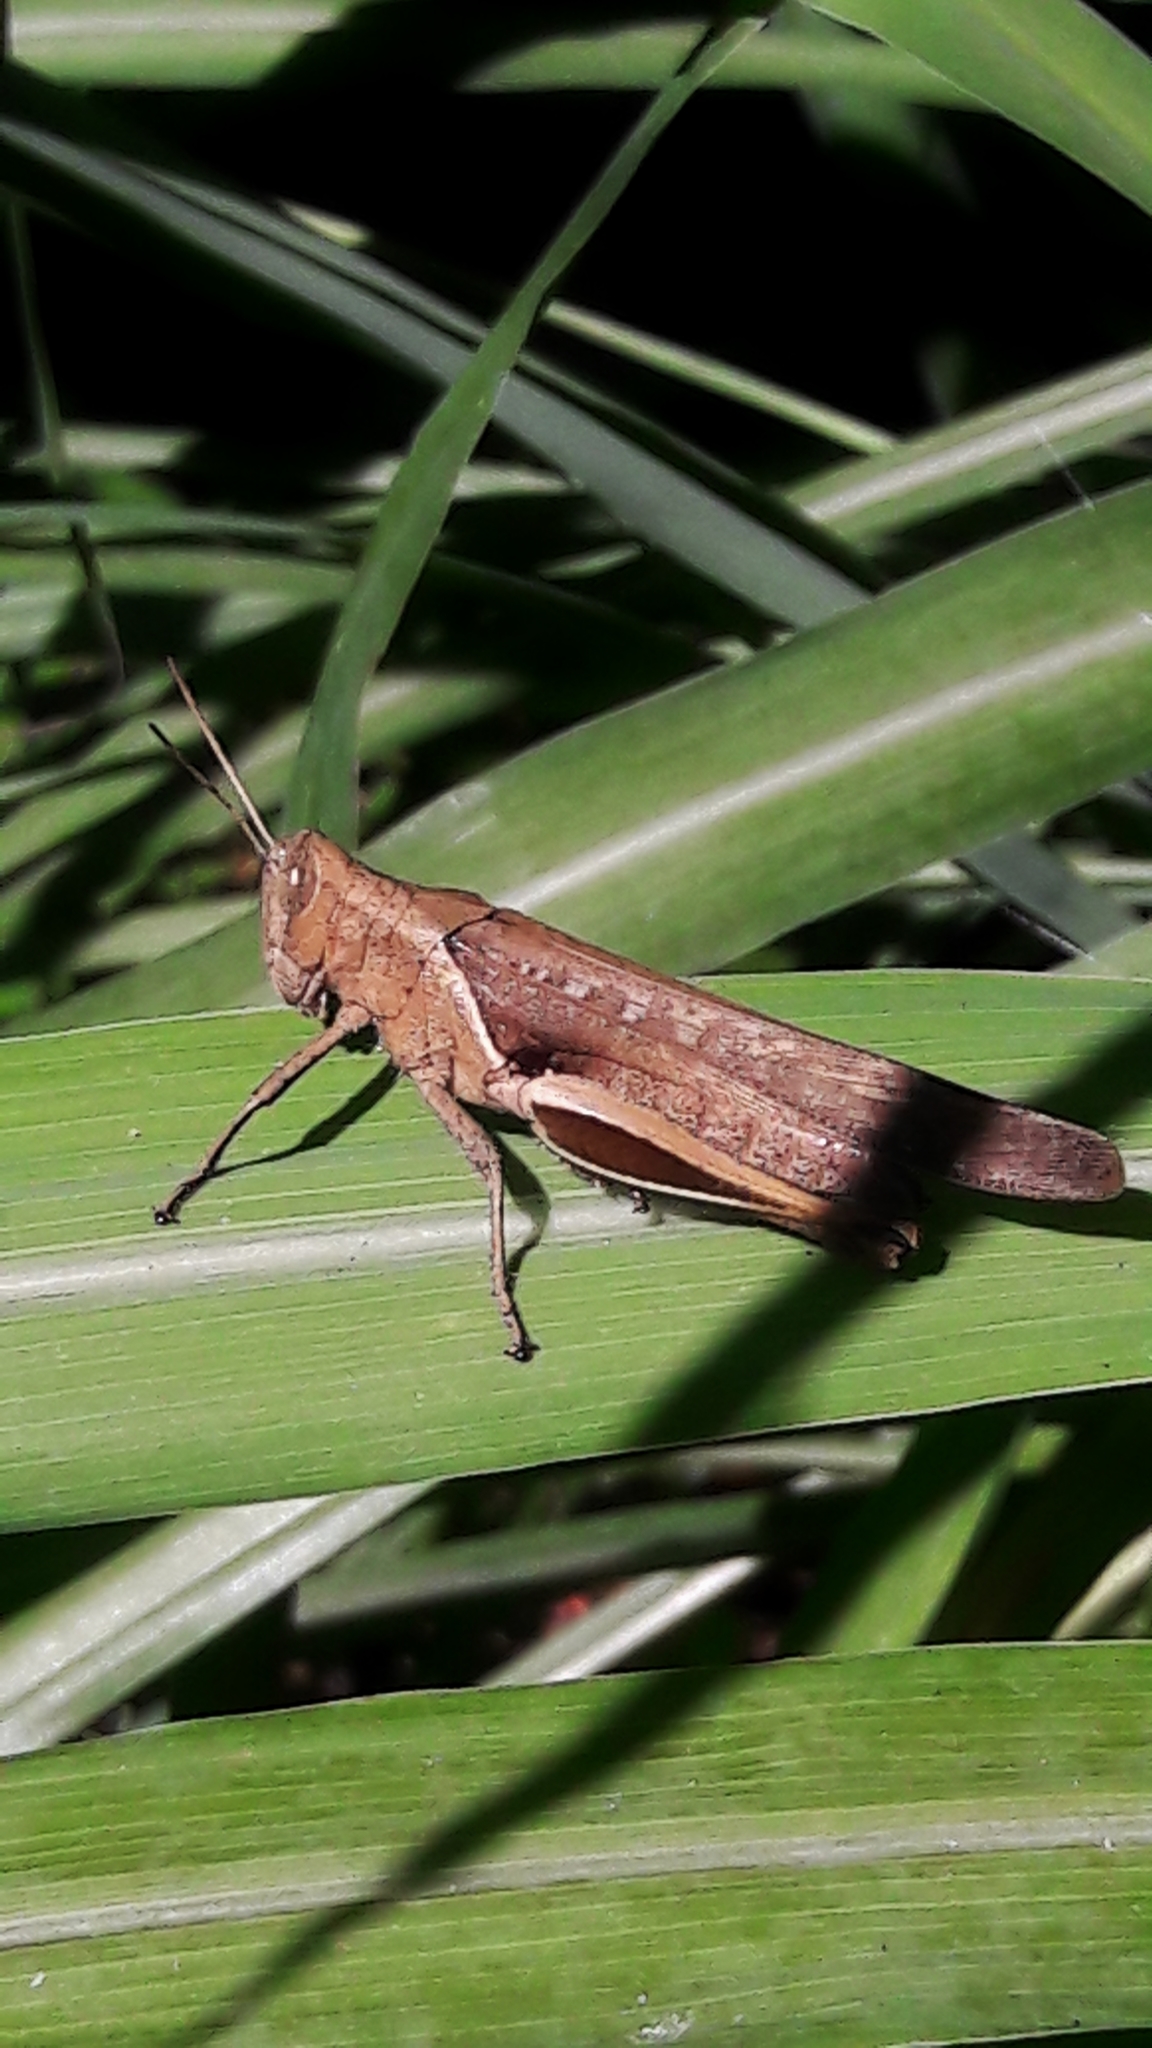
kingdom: Animalia
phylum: Arthropoda
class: Insecta
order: Orthoptera
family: Acrididae
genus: Abracris
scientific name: Abracris flavolineata
